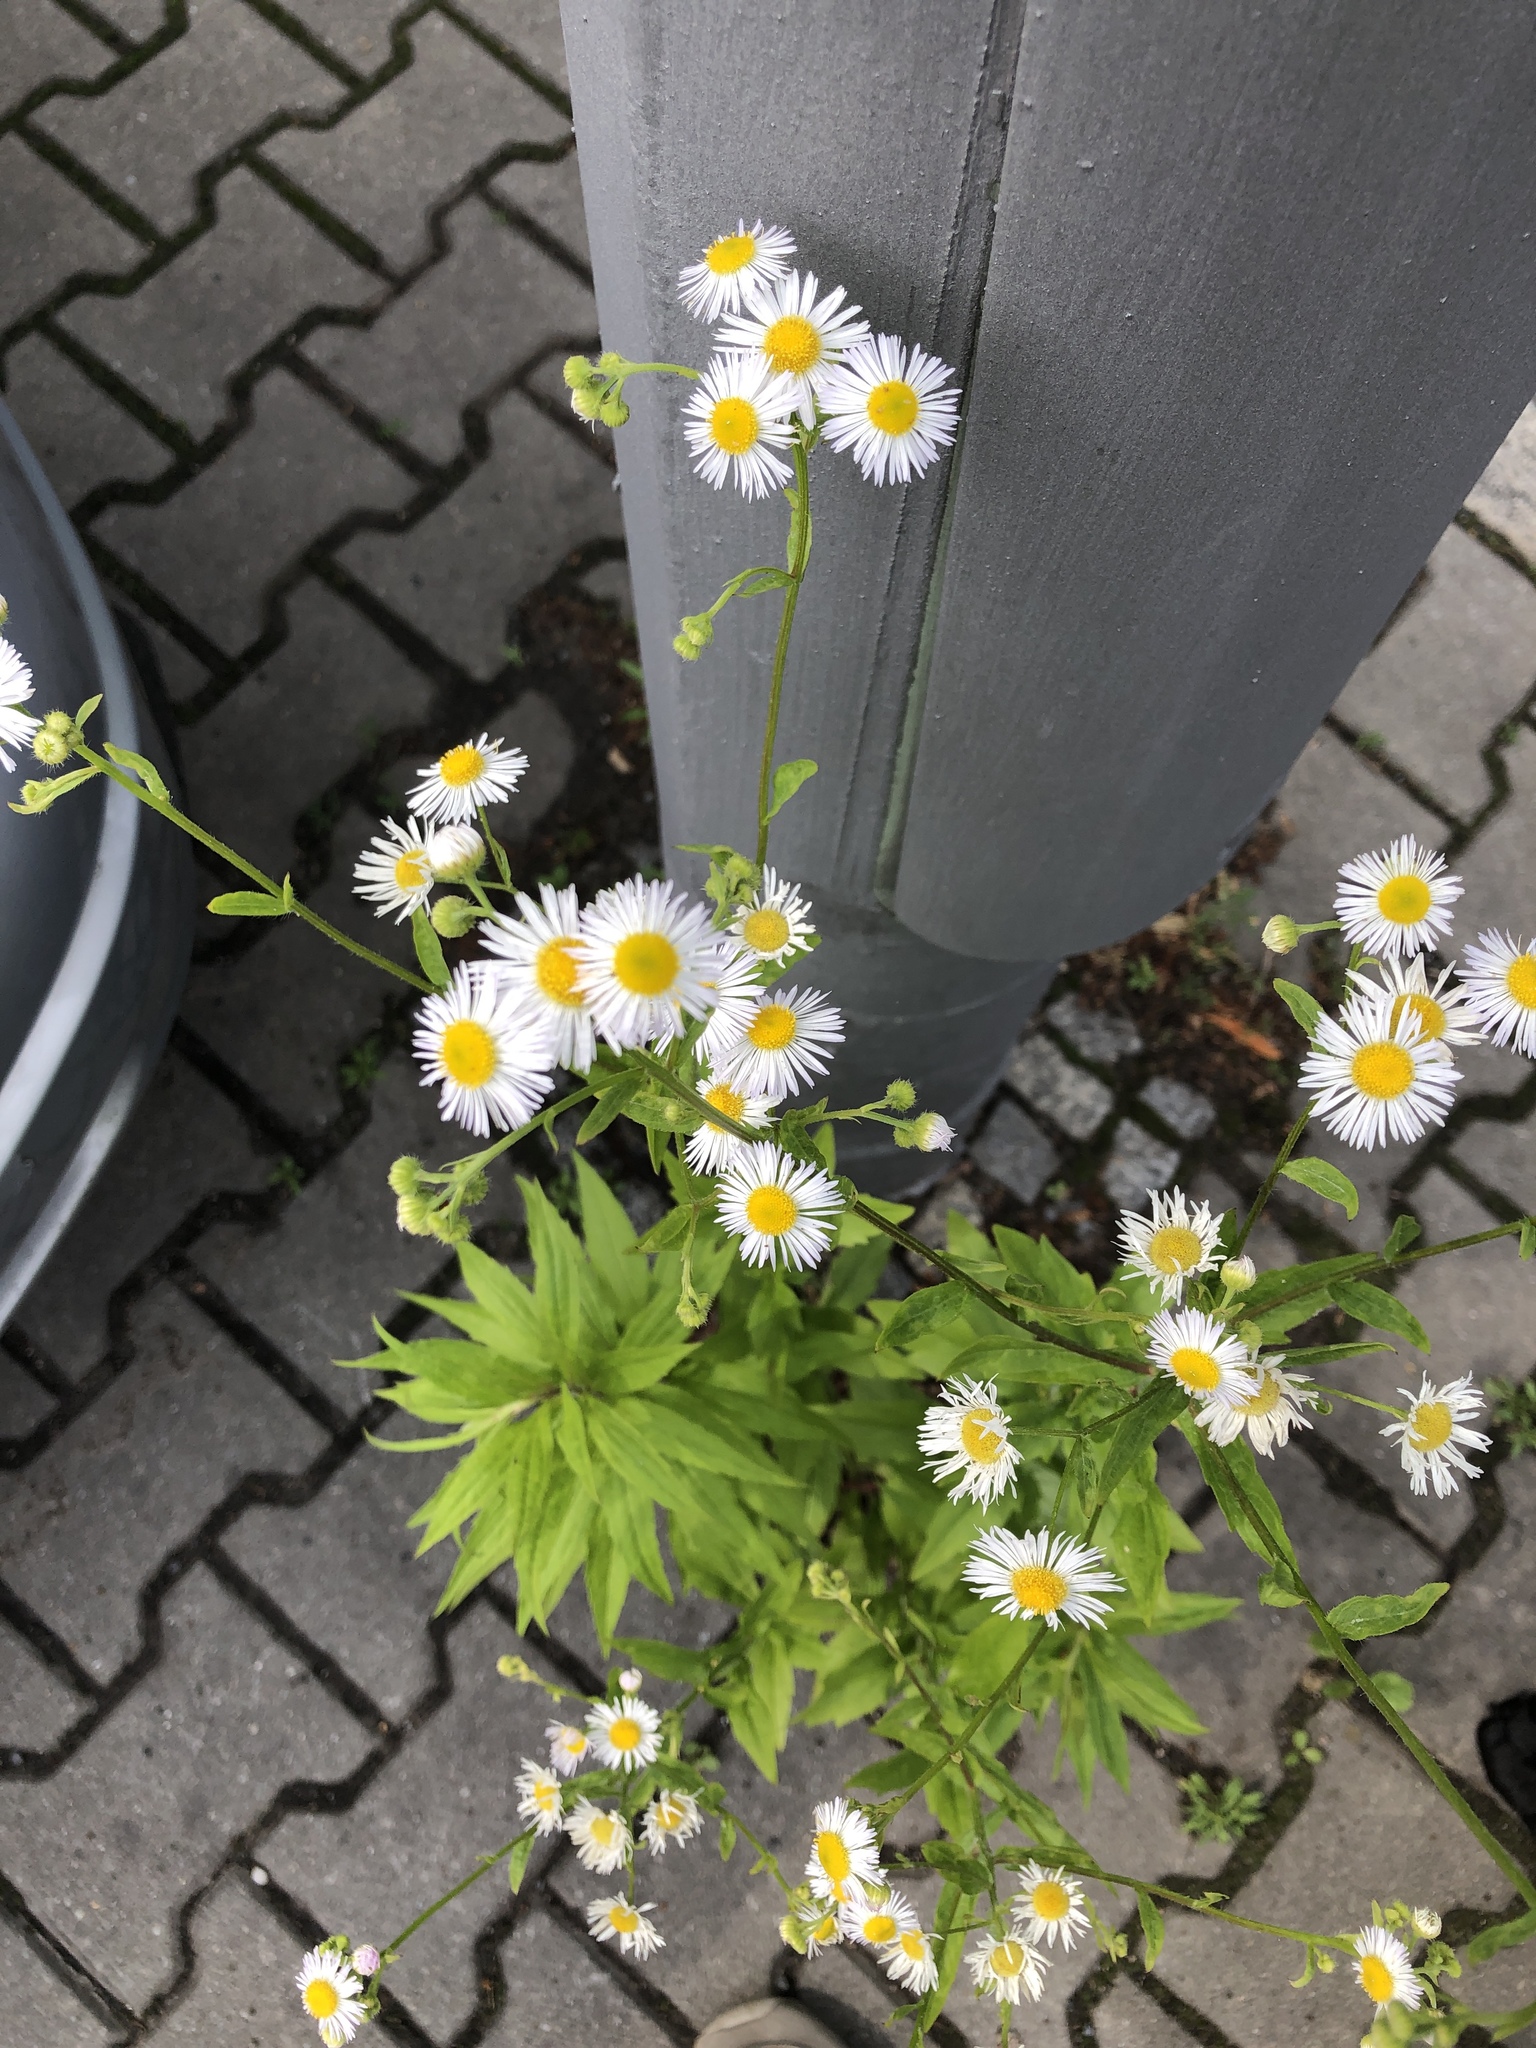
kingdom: Plantae
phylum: Tracheophyta
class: Magnoliopsida
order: Asterales
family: Asteraceae
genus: Erigeron
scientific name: Erigeron annuus
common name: Tall fleabane
